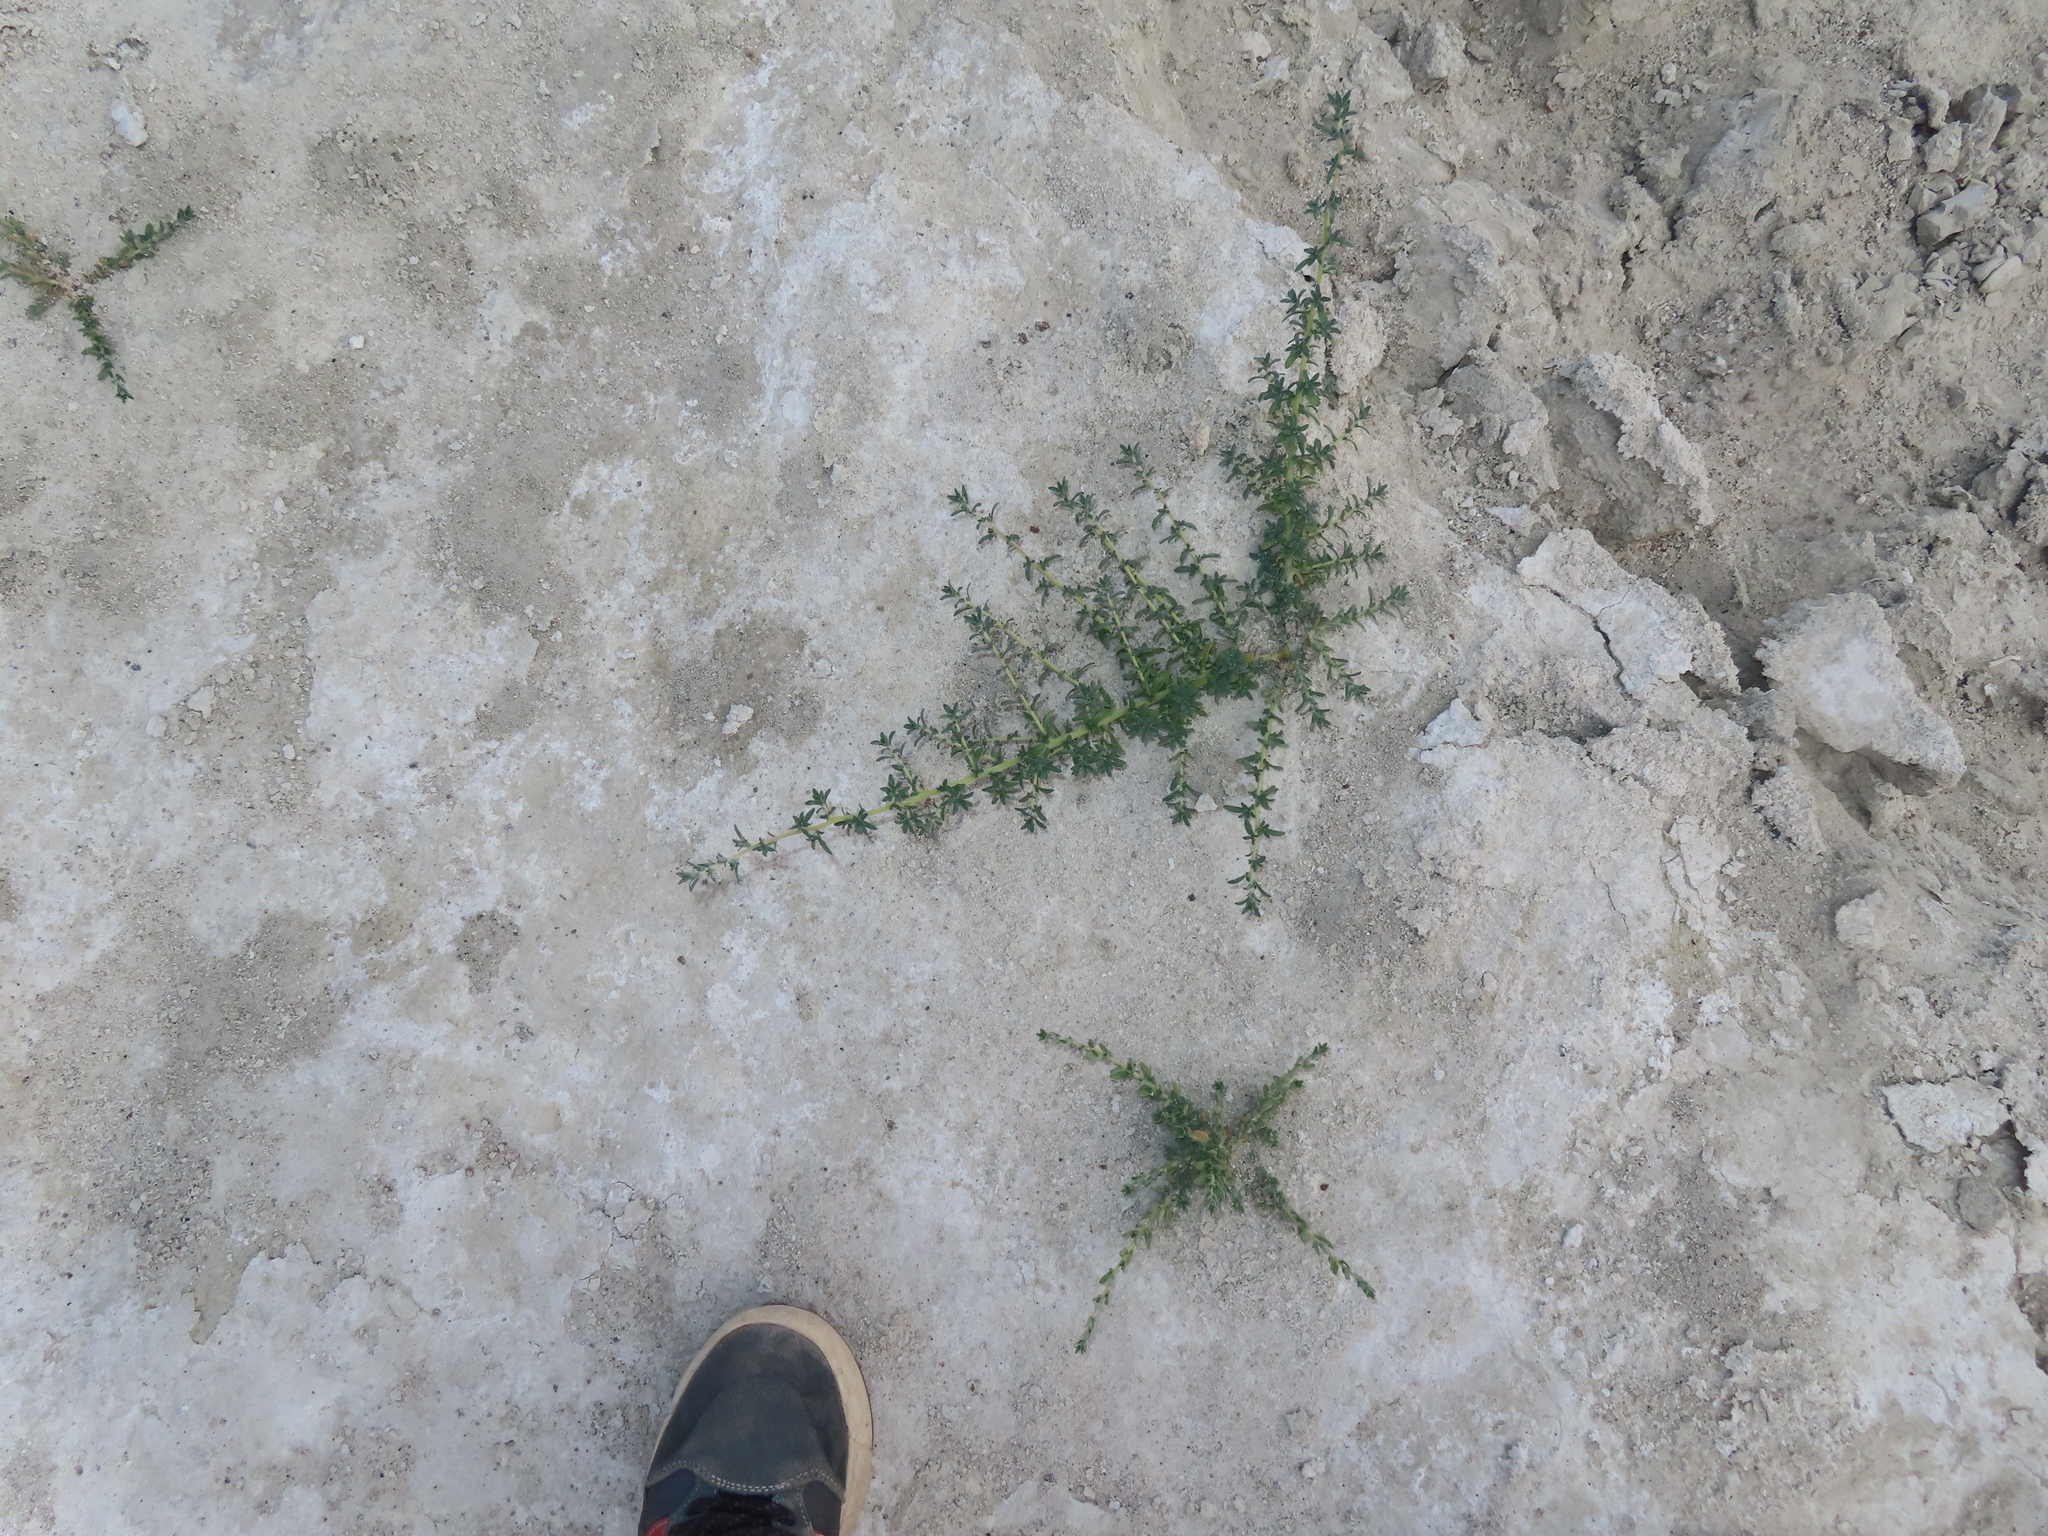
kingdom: Plantae
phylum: Tracheophyta
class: Magnoliopsida
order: Zygophyllales
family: Zygophyllaceae
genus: Larrea
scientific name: Larrea tridentata
